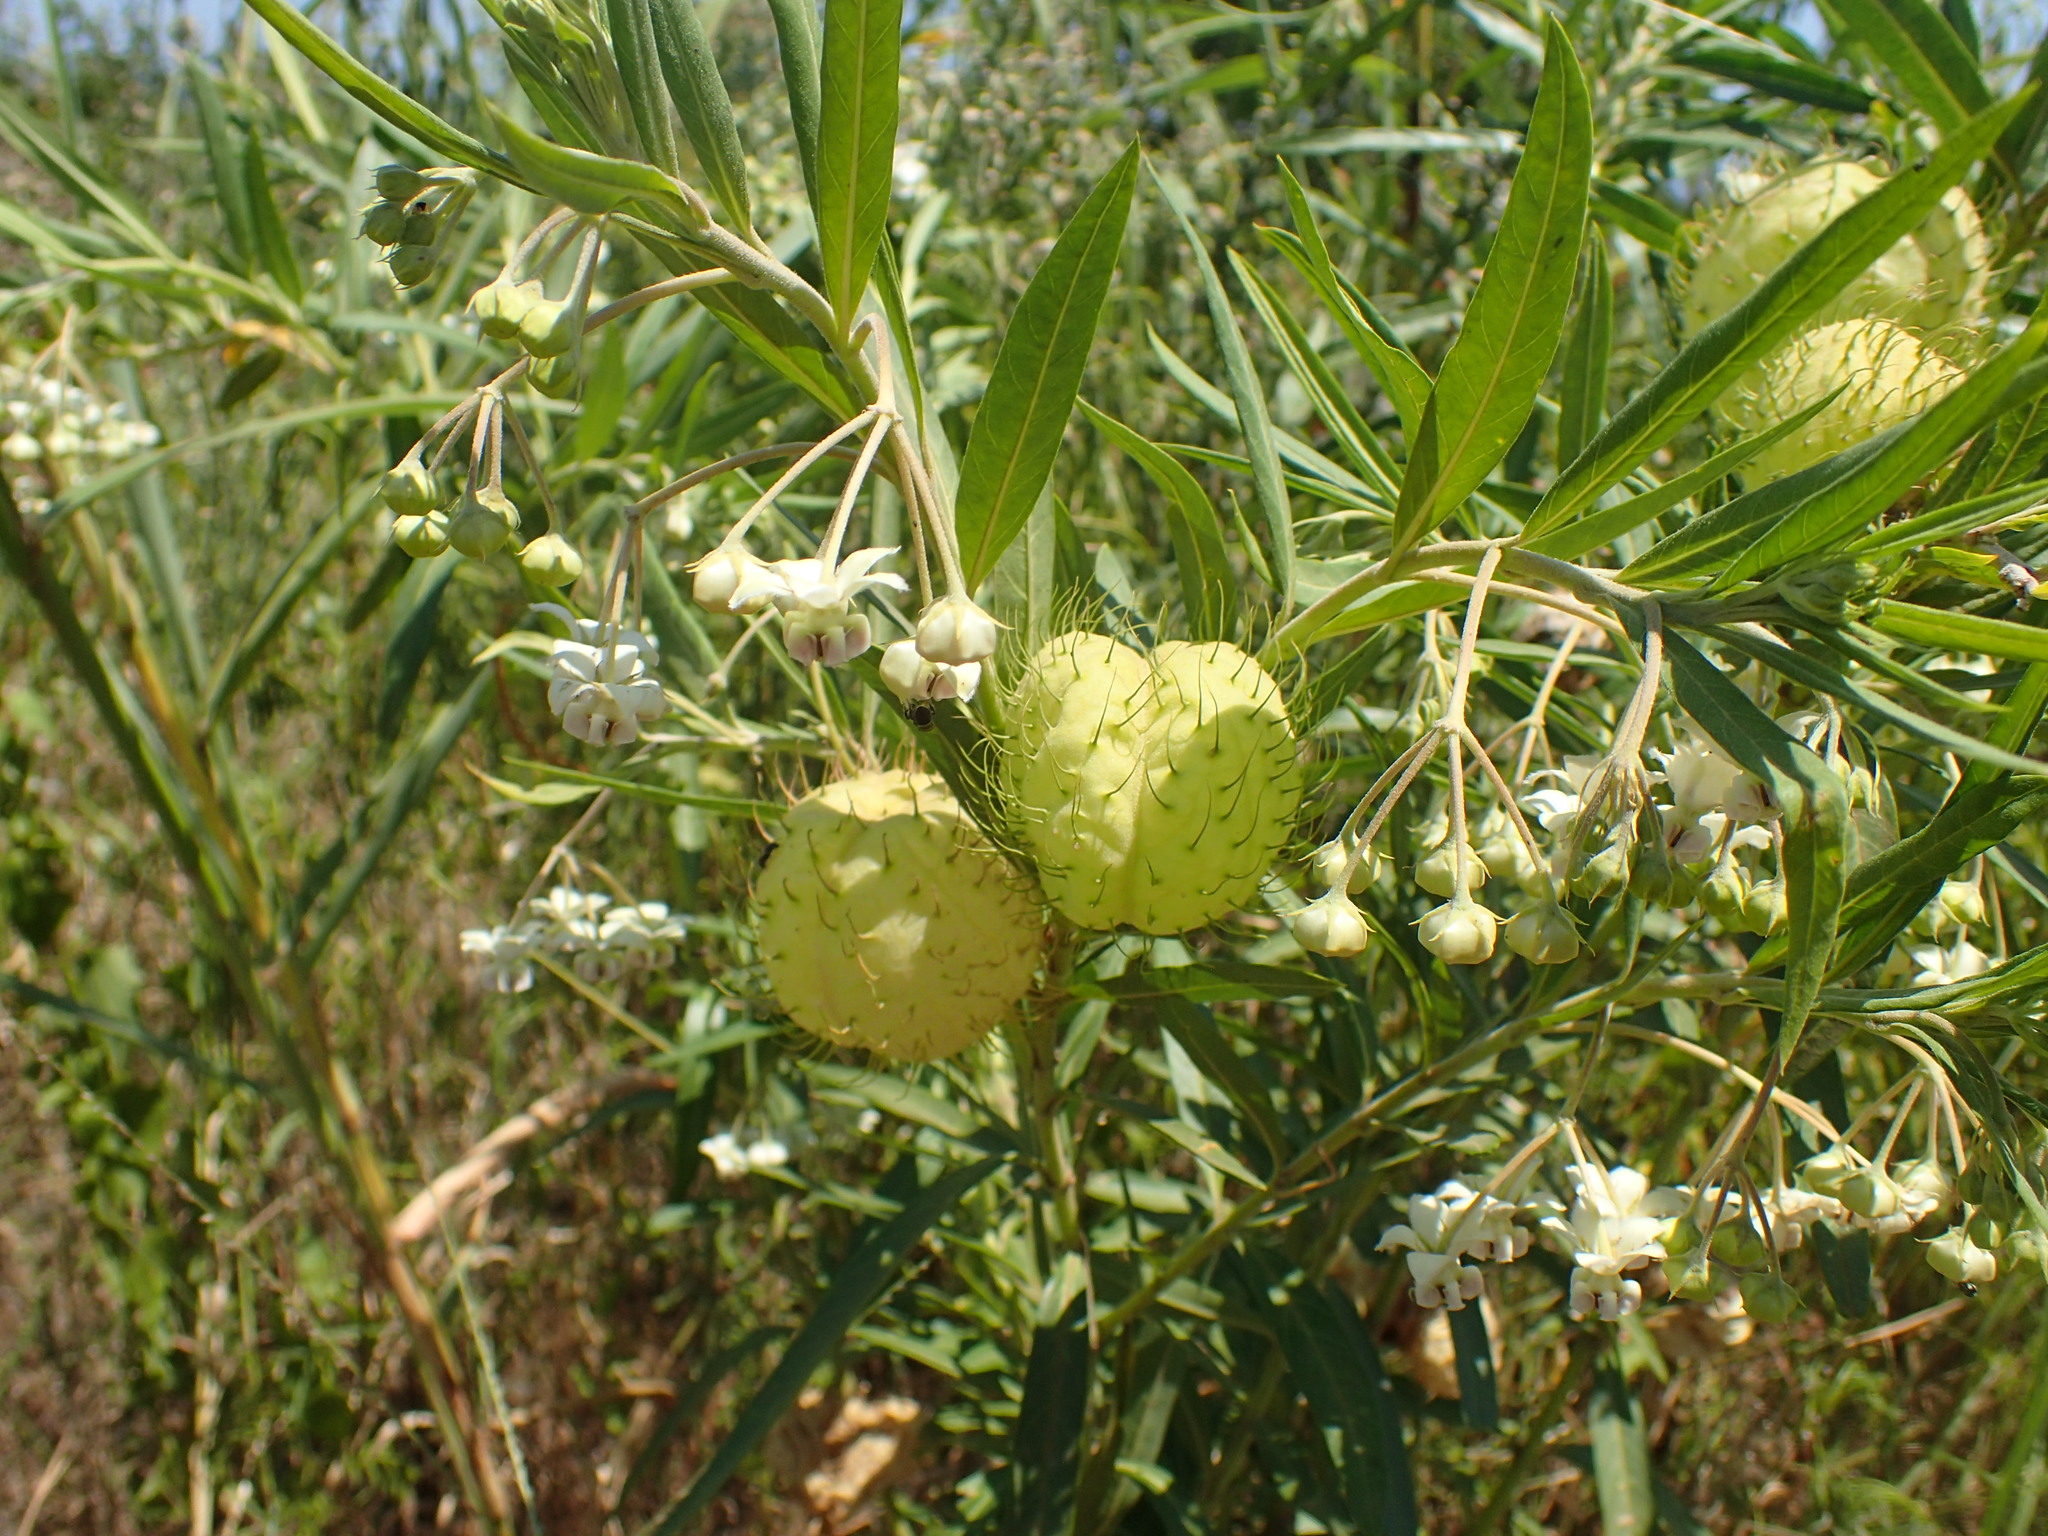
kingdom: Plantae
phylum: Tracheophyta
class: Magnoliopsida
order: Gentianales
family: Apocynaceae
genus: Gomphocarpus
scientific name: Gomphocarpus physocarpus
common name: Balloon cotton bush
